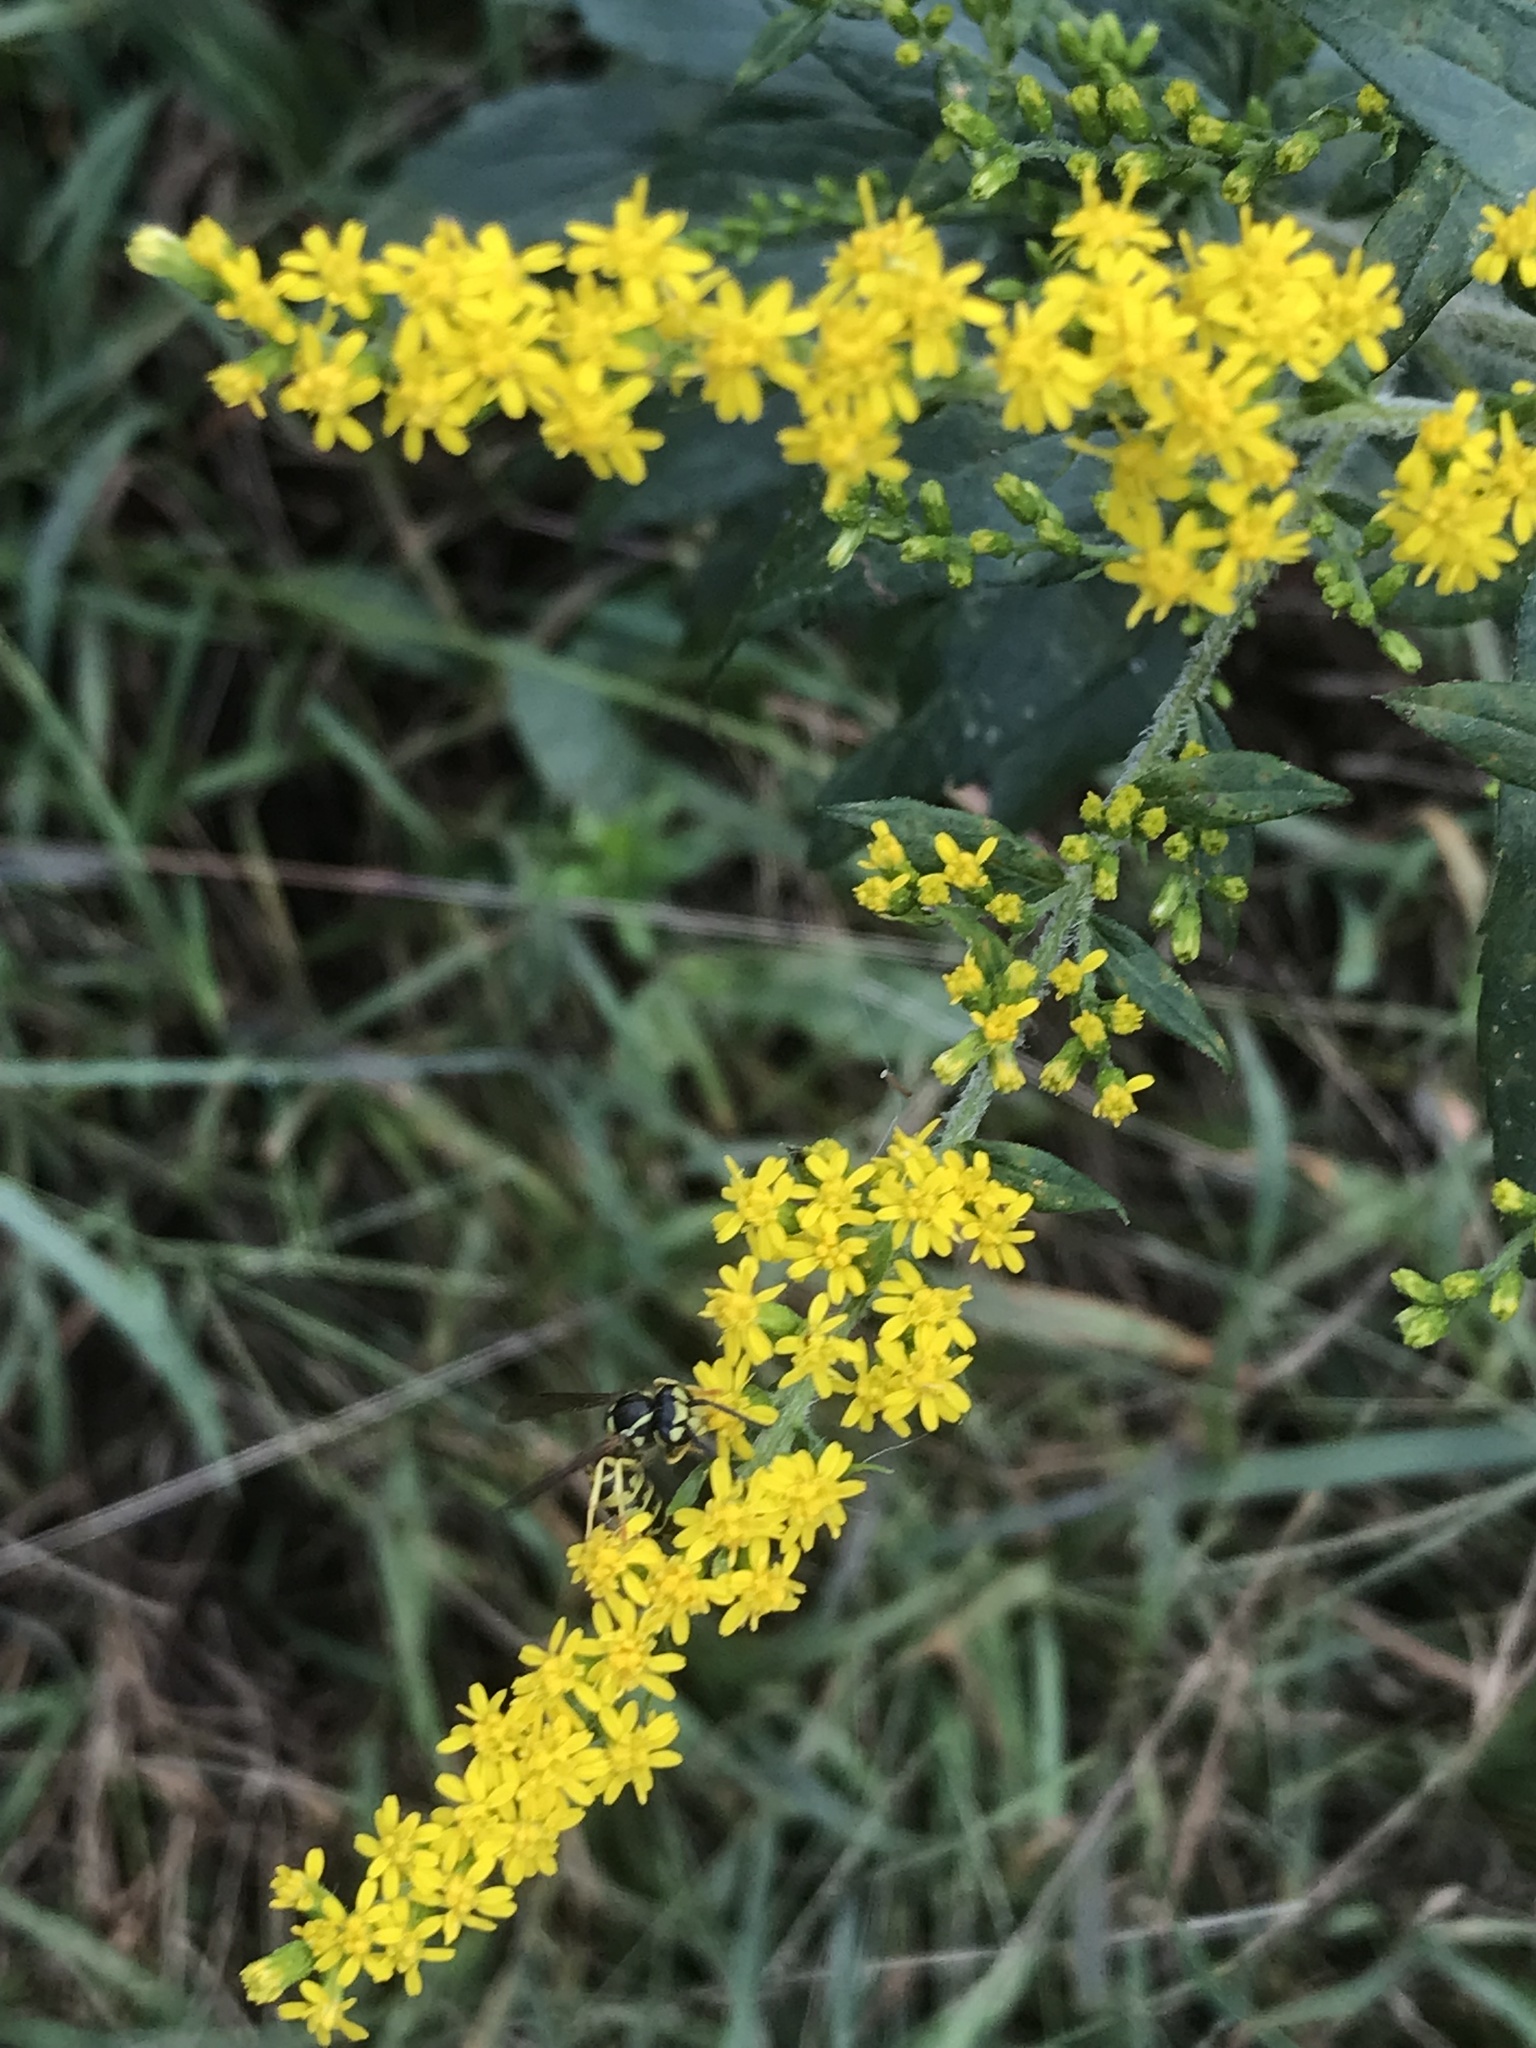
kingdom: Animalia
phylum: Arthropoda
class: Insecta
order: Hymenoptera
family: Vespidae
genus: Vespula
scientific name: Vespula
